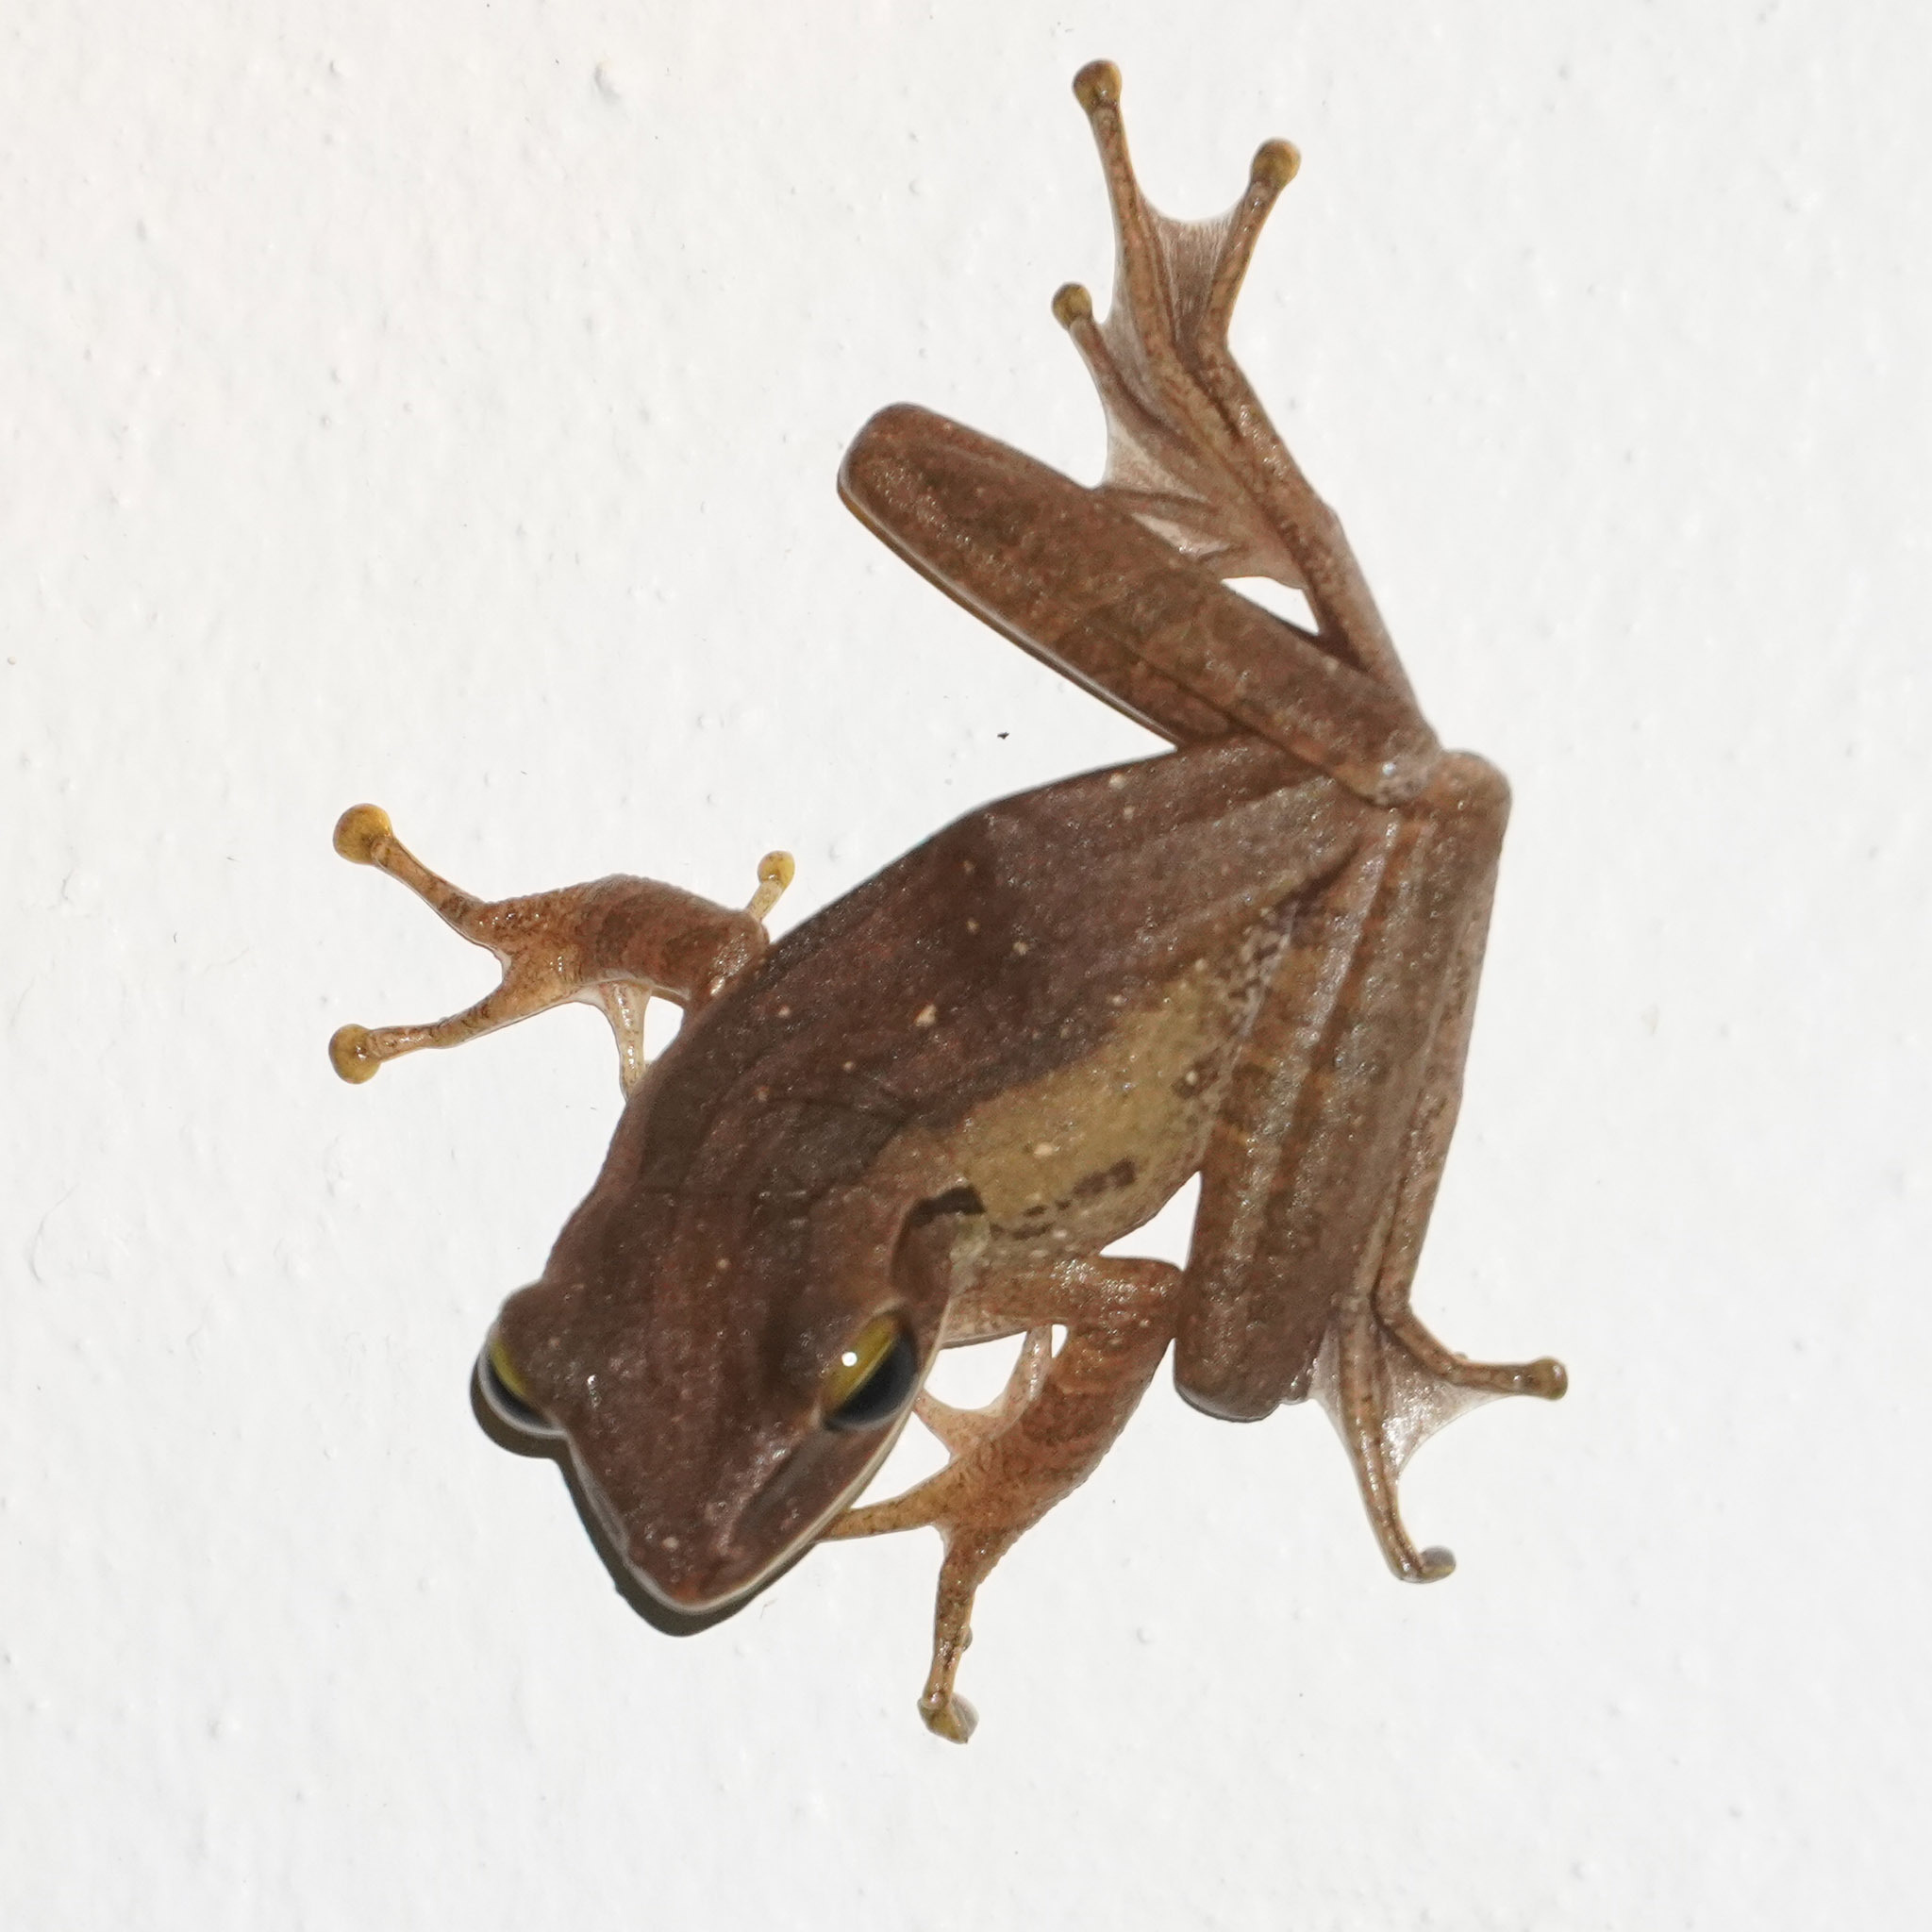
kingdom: Animalia
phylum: Chordata
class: Amphibia
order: Anura
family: Rhacophoridae
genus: Polypedates
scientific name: Polypedates leucomystax
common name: Common tree frog/four-lined tree frog
